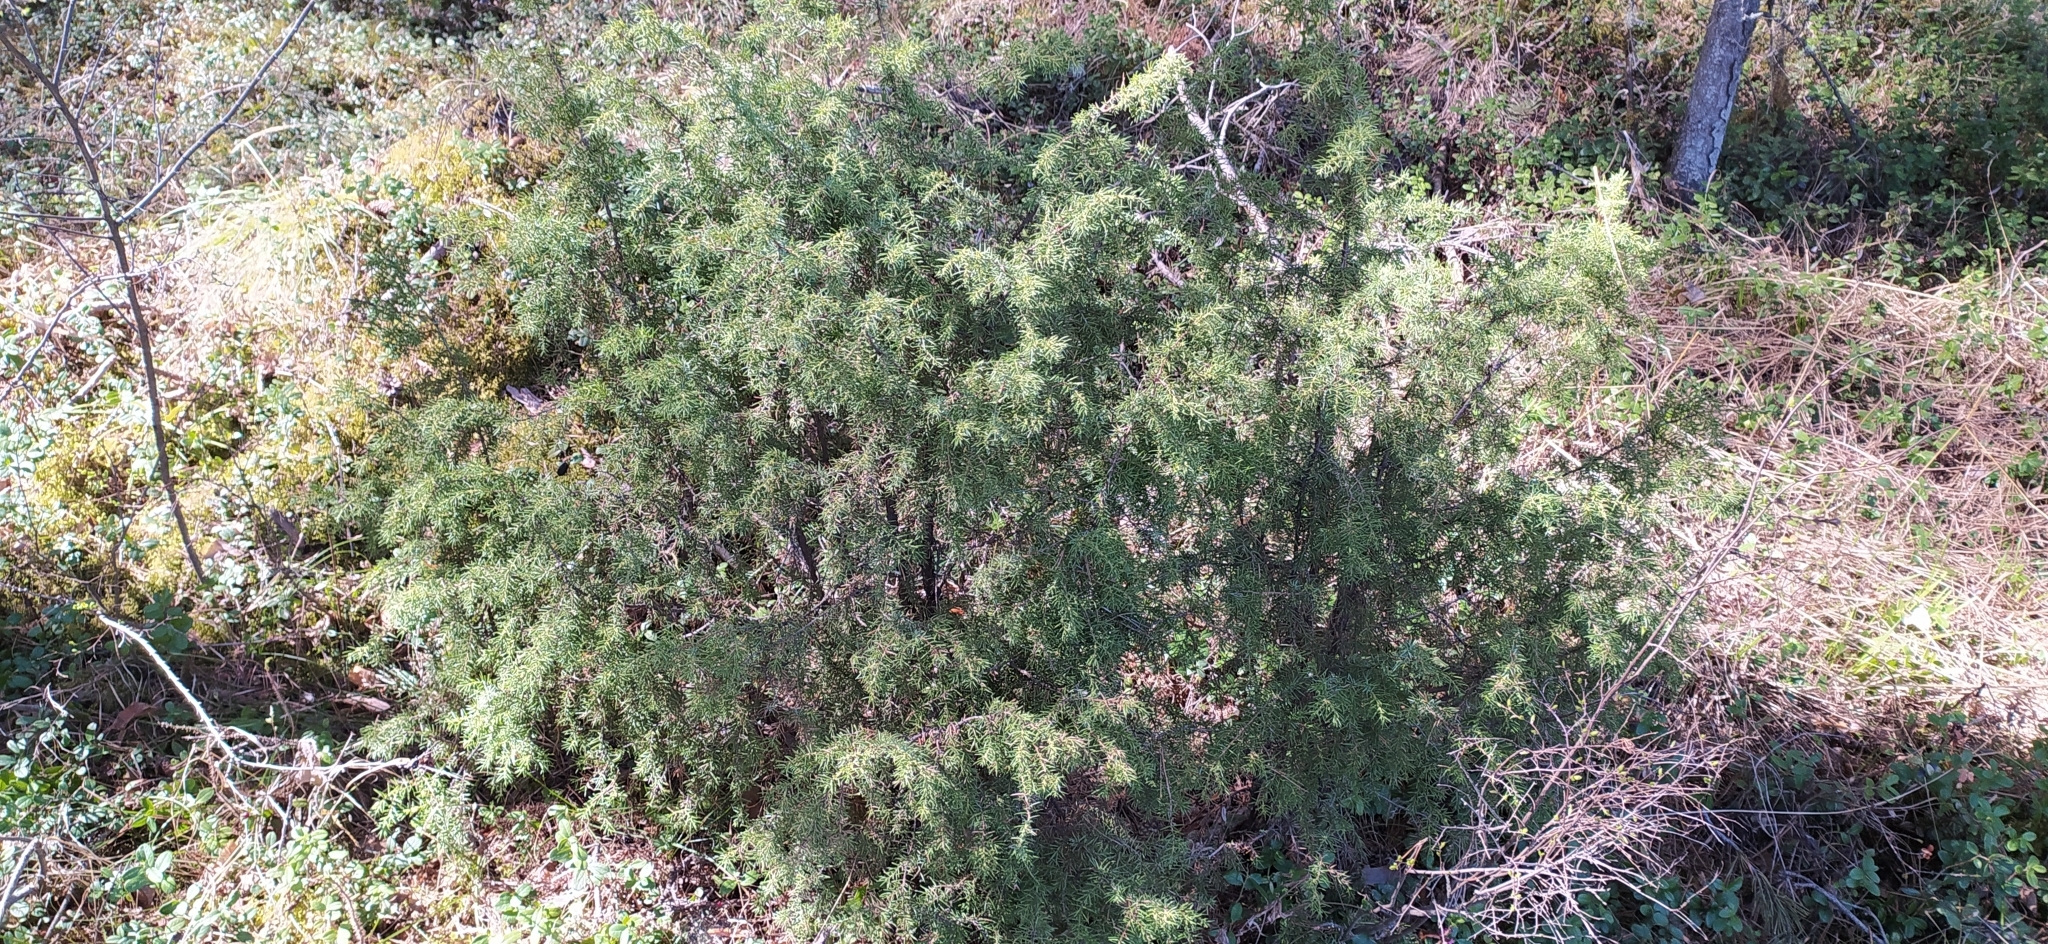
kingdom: Plantae
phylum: Tracheophyta
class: Pinopsida
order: Pinales
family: Cupressaceae
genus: Juniperus
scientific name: Juniperus communis
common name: Common juniper
